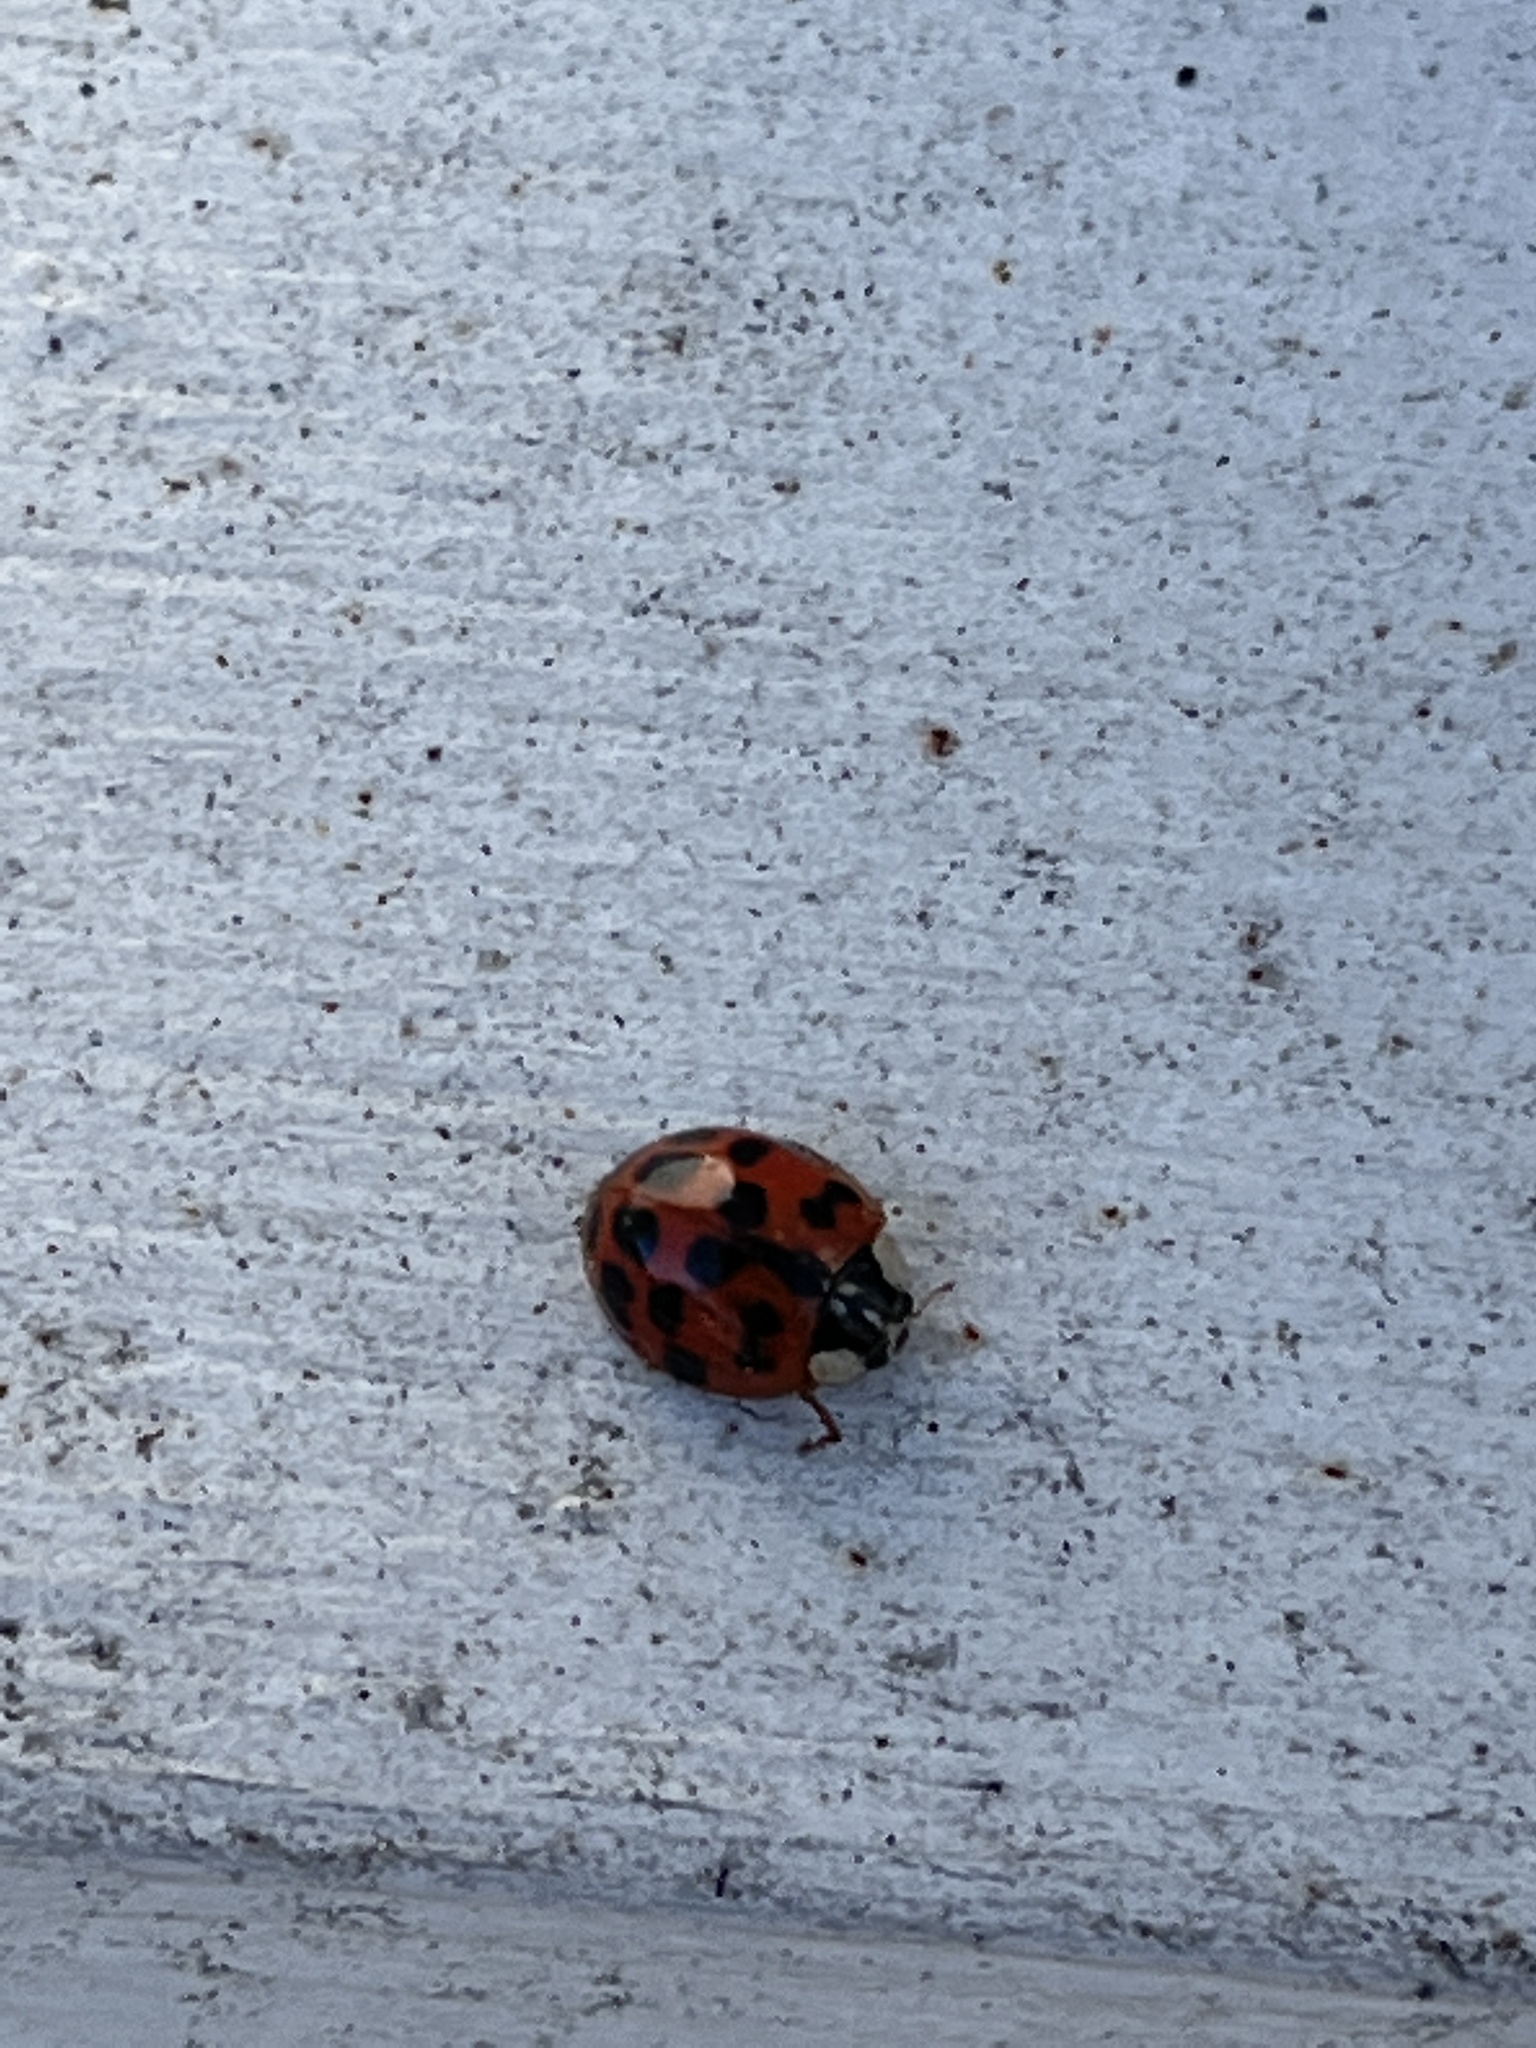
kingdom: Animalia
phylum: Arthropoda
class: Insecta
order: Coleoptera
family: Coccinellidae
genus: Harmonia
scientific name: Harmonia axyridis
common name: Harlequin ladybird
